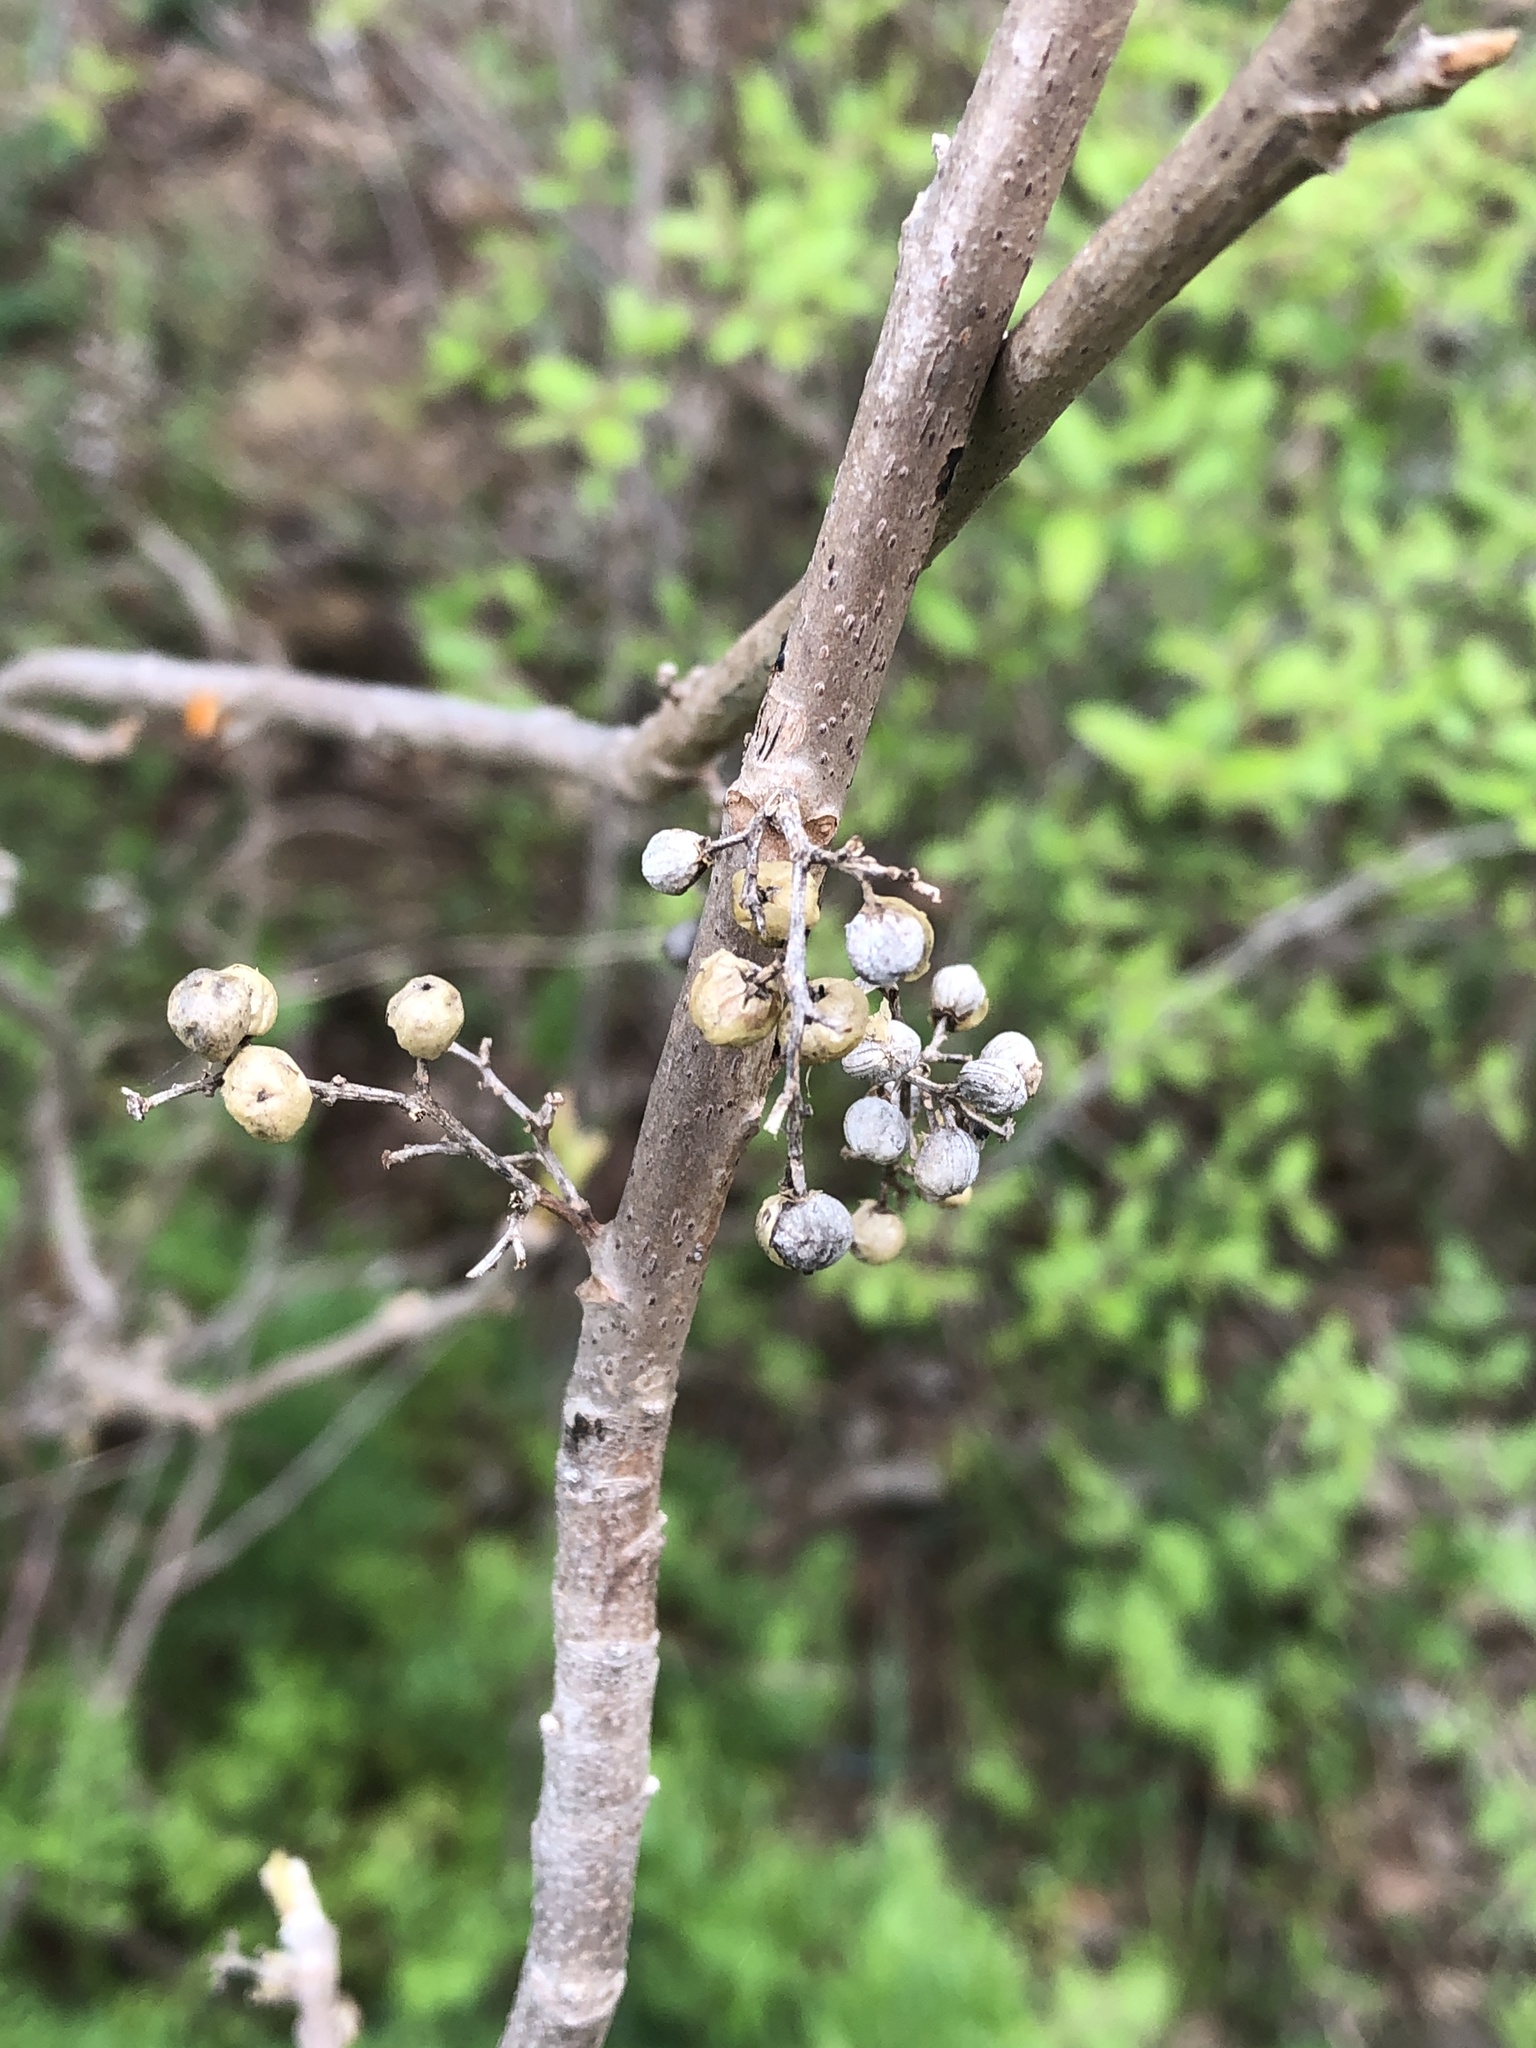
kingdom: Plantae
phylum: Tracheophyta
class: Magnoliopsida
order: Sapindales
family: Anacardiaceae
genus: Toxicodendron
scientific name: Toxicodendron radicans
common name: Poison ivy
